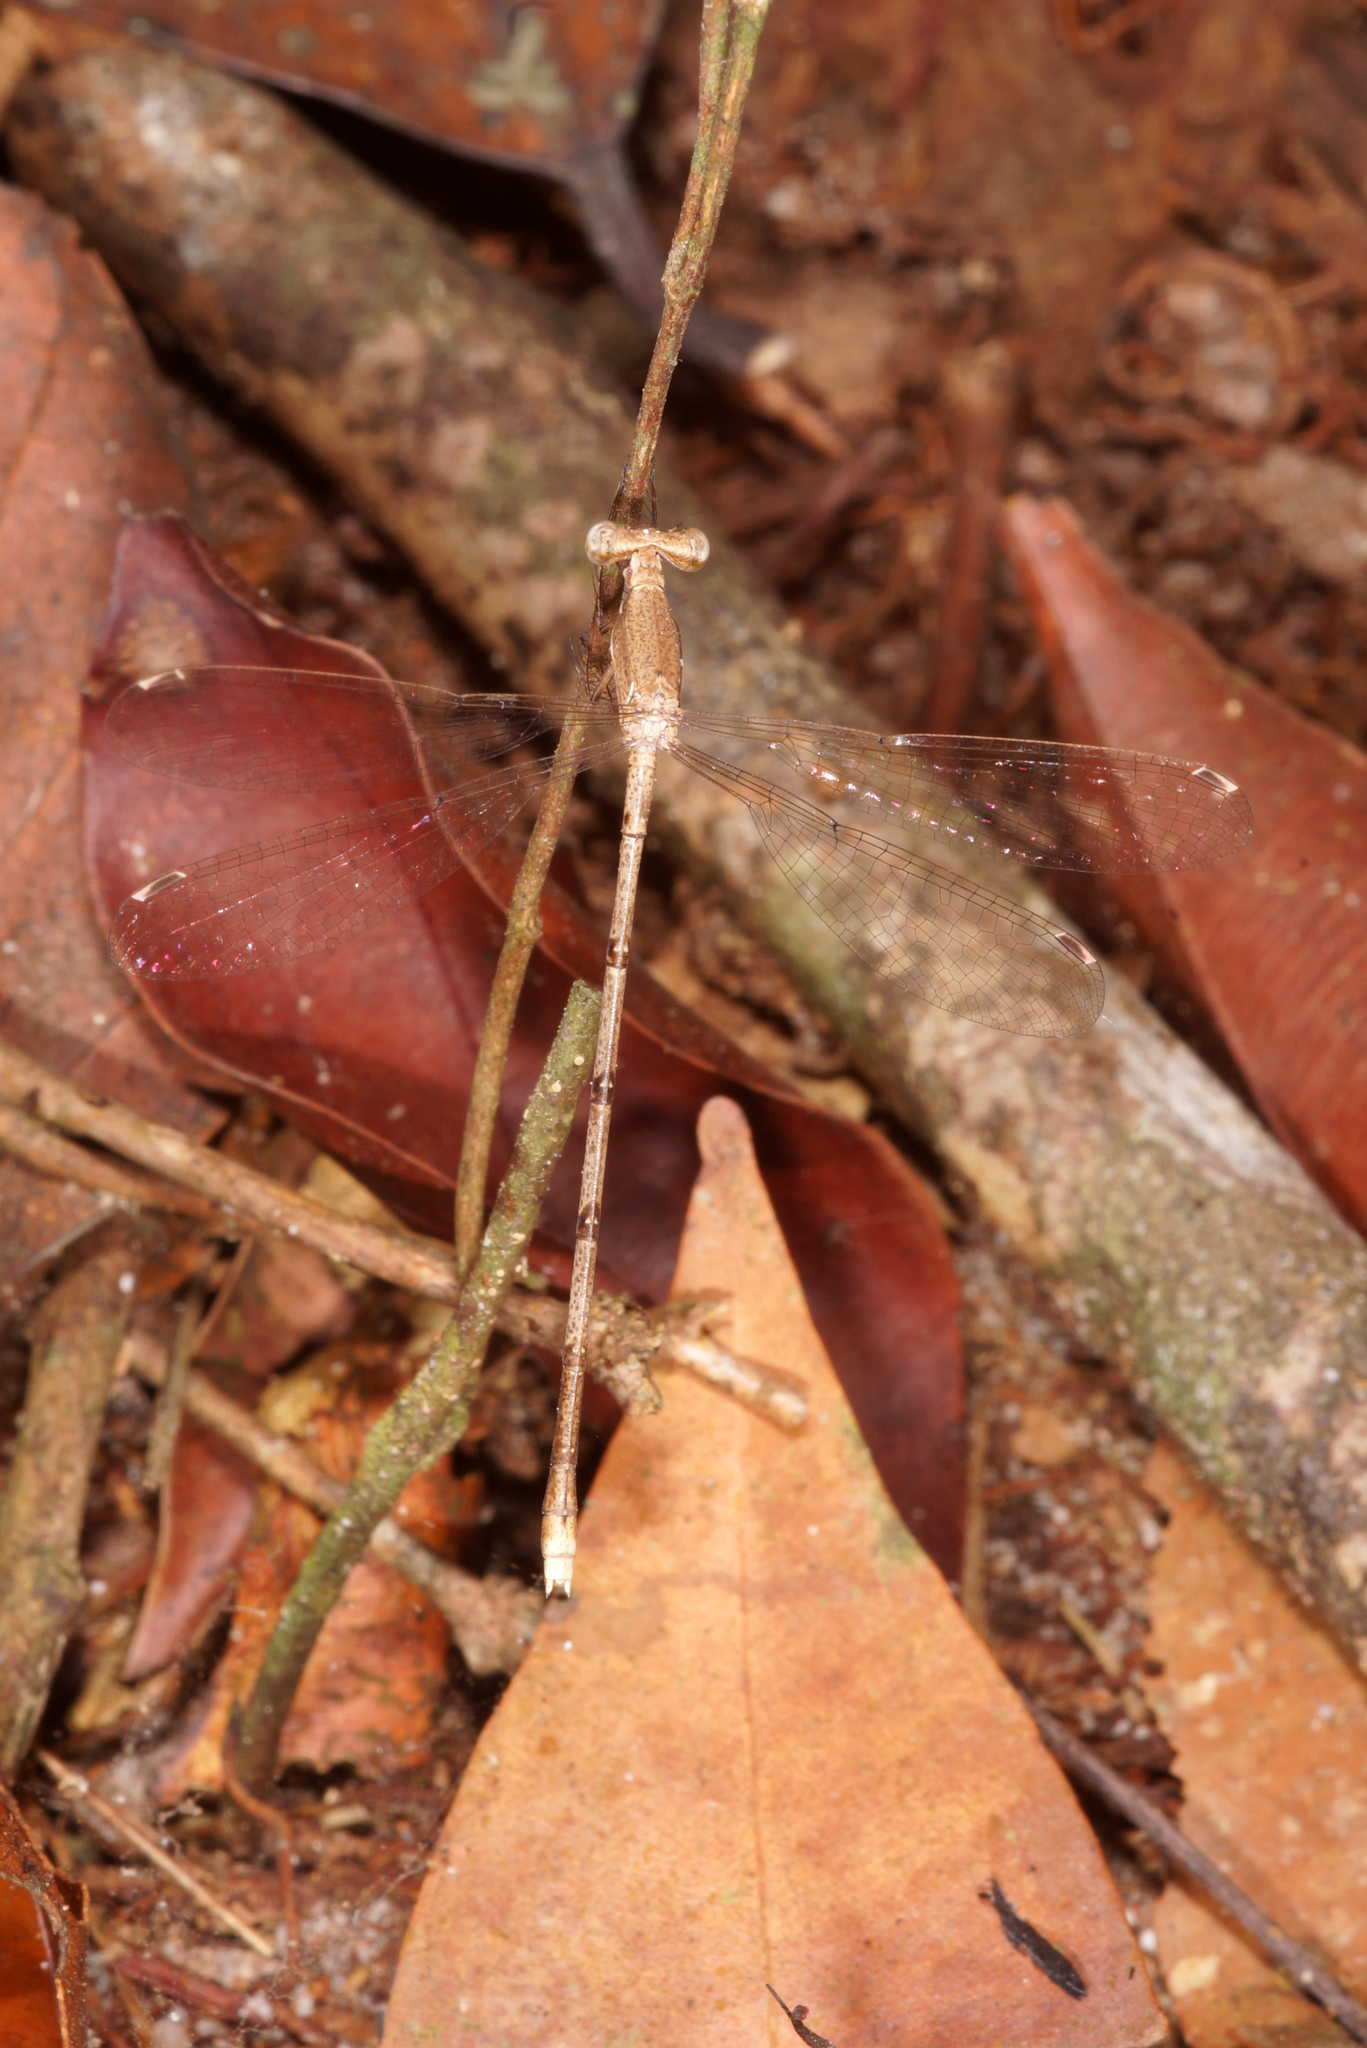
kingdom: Animalia
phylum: Arthropoda
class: Insecta
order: Odonata
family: Lestidae
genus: Lestes
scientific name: Lestes nodalis
